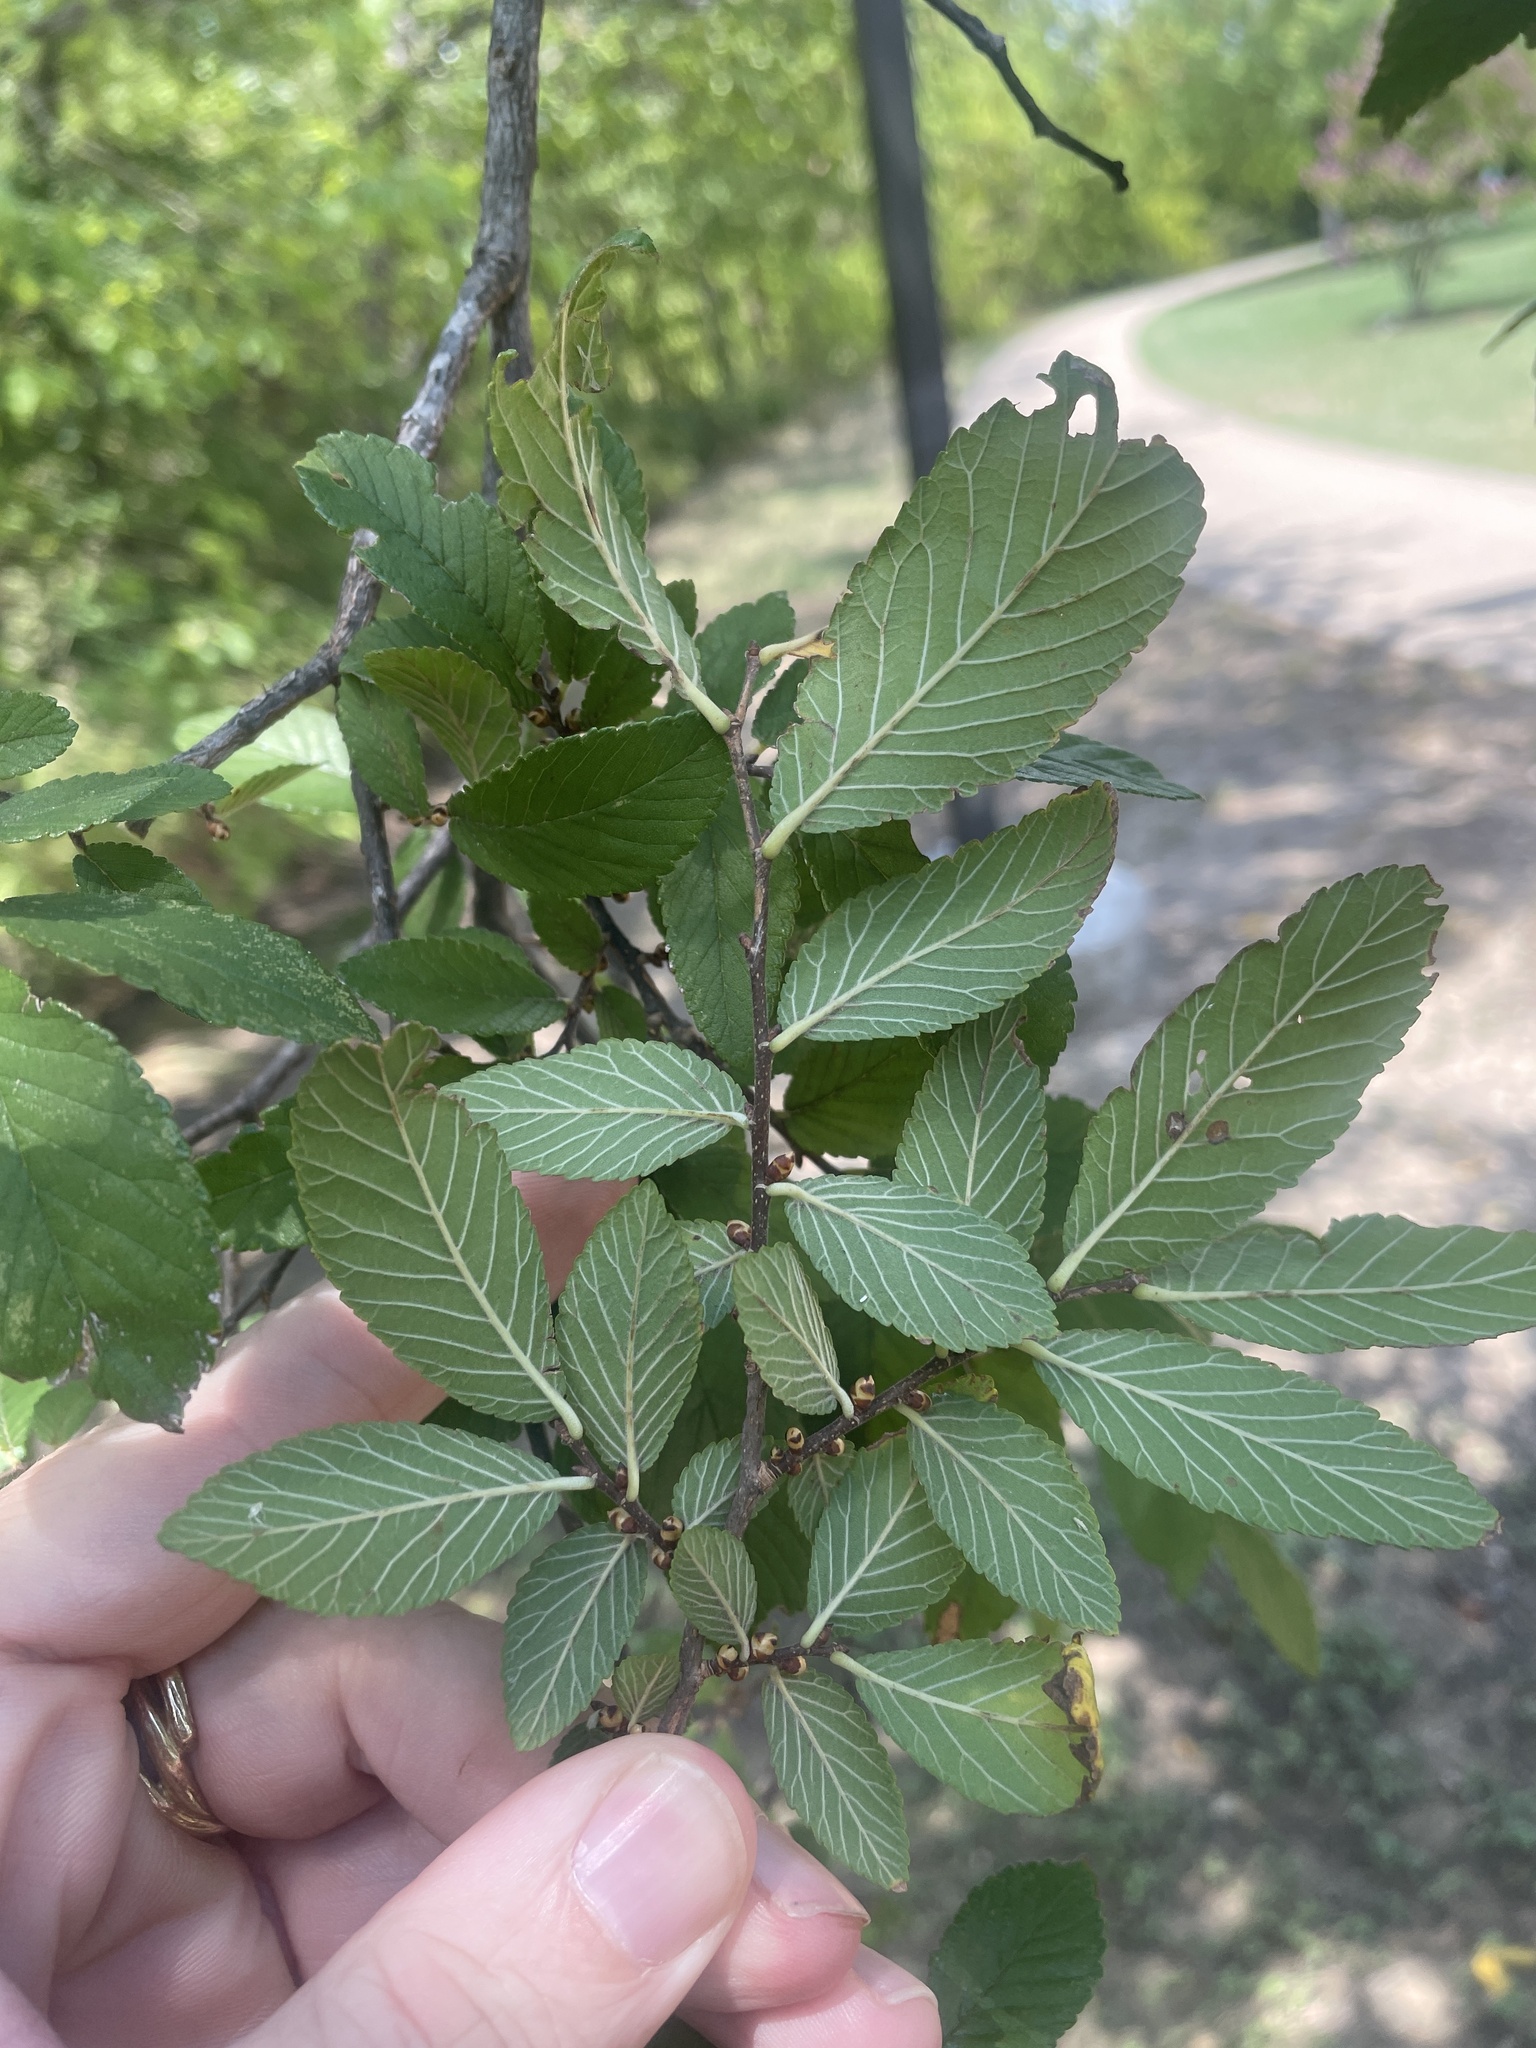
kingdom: Plantae
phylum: Tracheophyta
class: Magnoliopsida
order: Rosales
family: Ulmaceae
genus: Ulmus
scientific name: Ulmus crassifolia
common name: Basket elm
